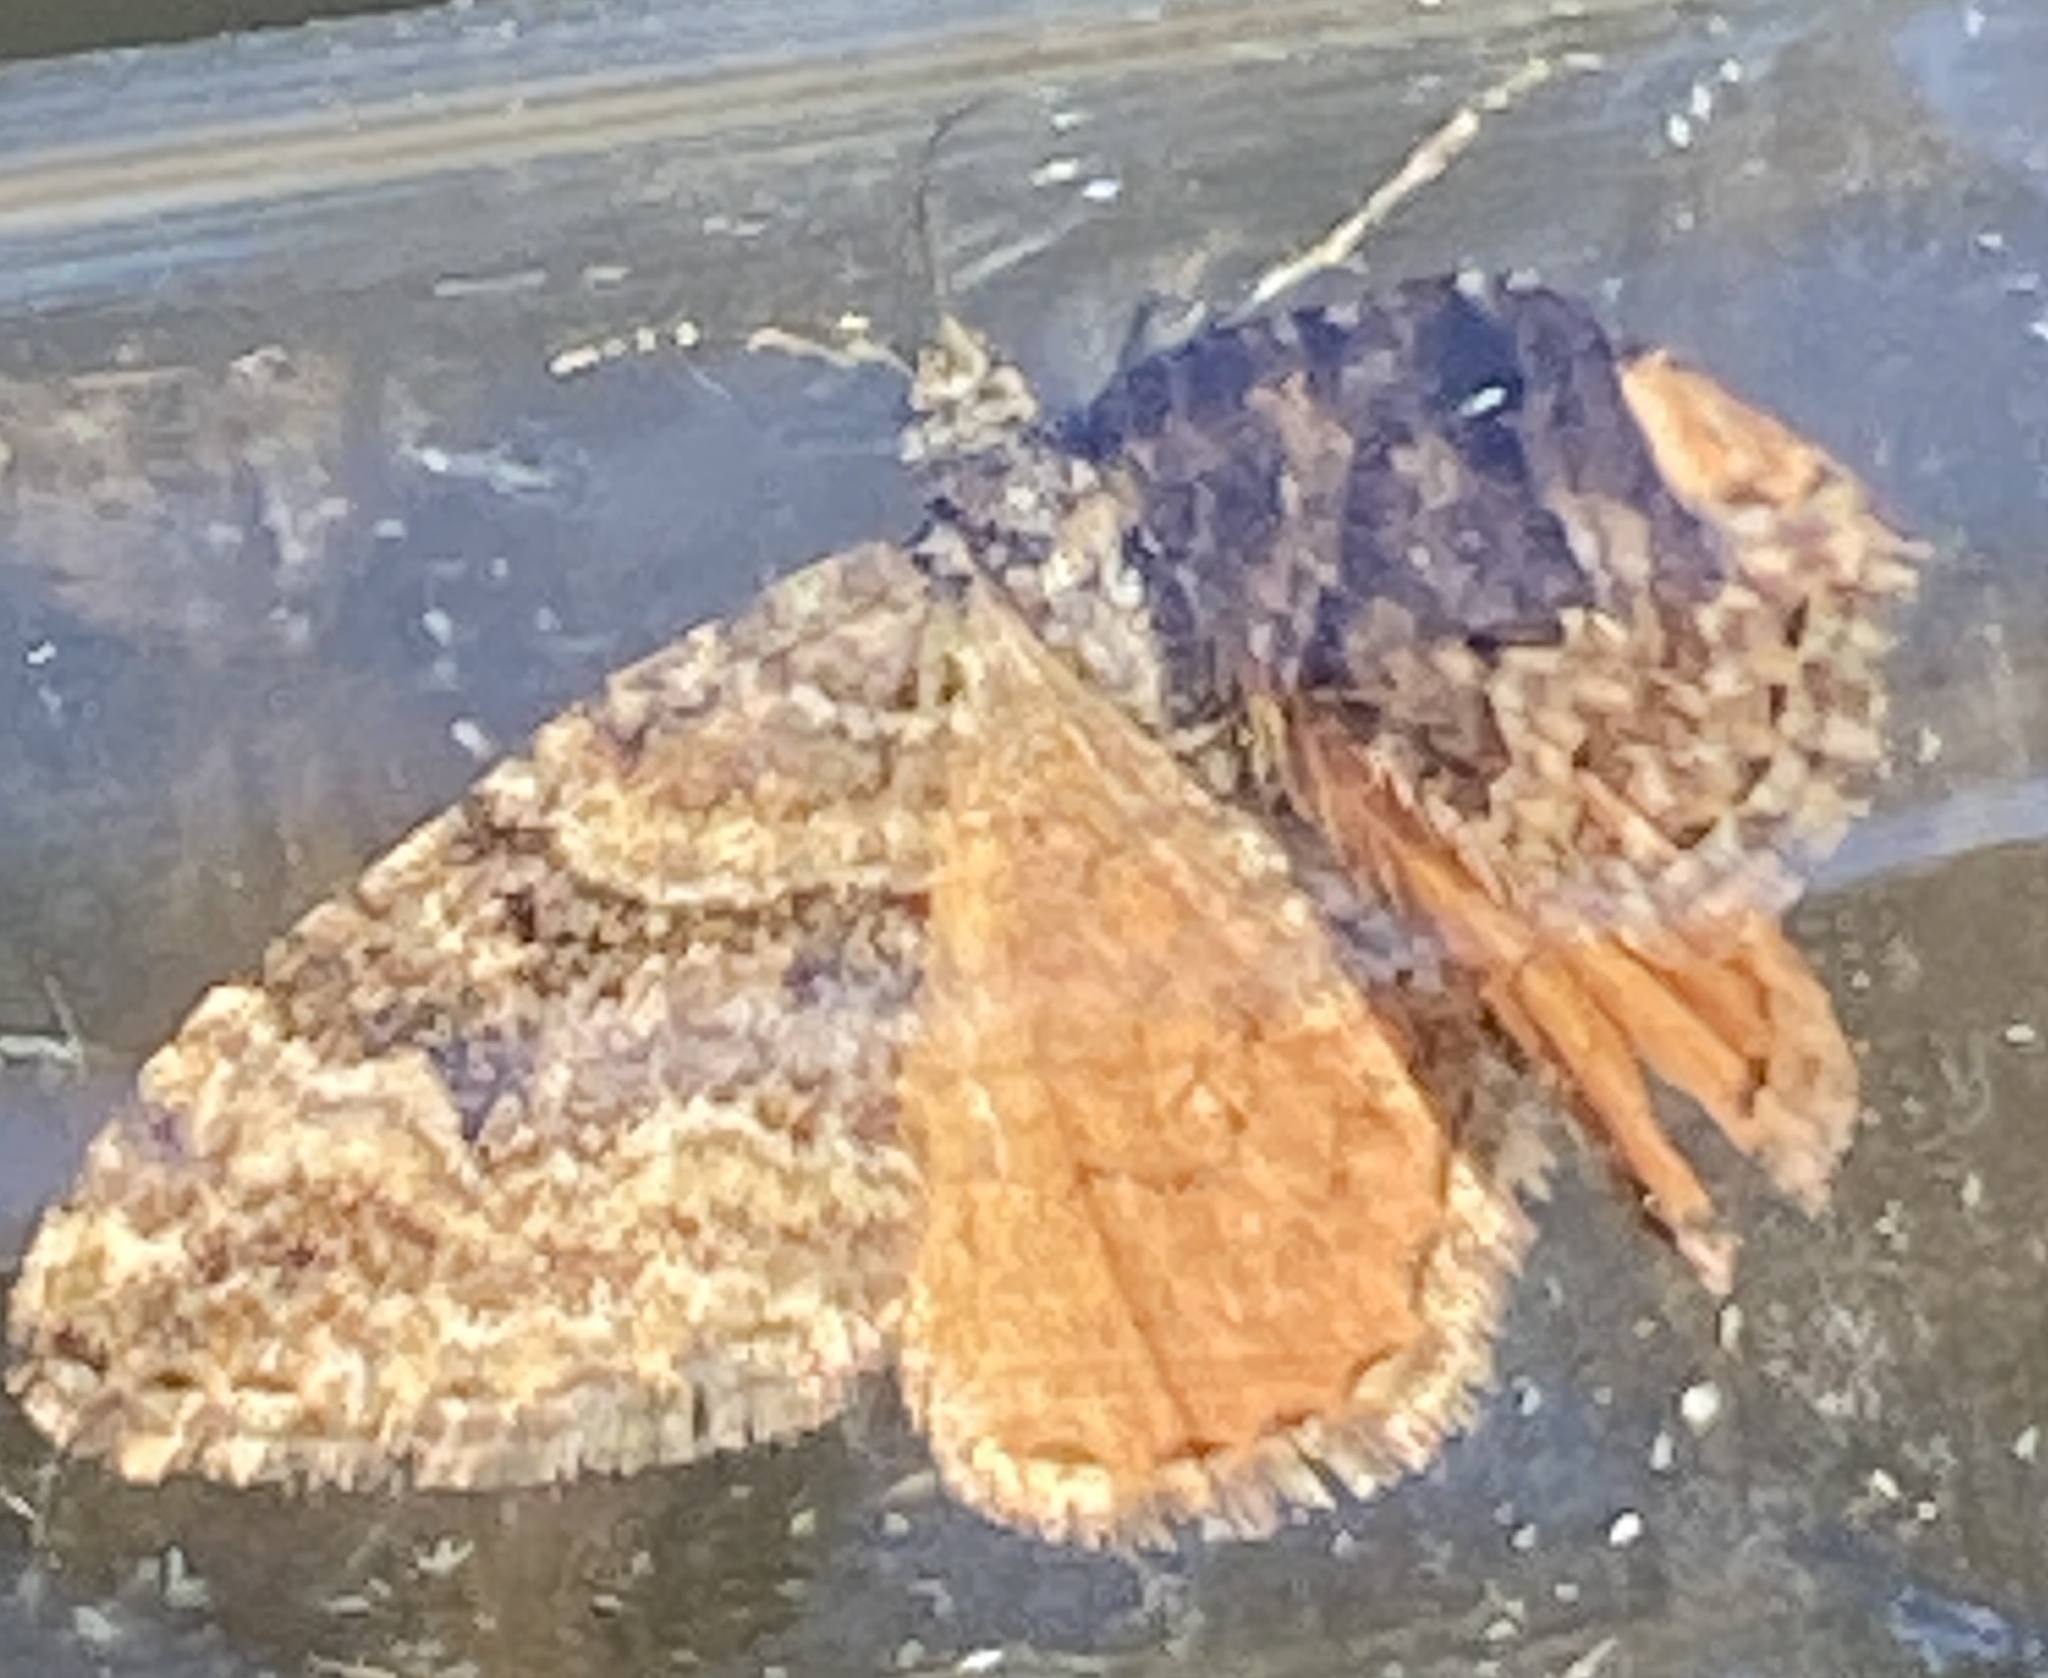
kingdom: Animalia
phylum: Arthropoda
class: Insecta
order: Lepidoptera
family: Geometridae
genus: Epirrhoe
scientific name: Epirrhoe plebeculata
